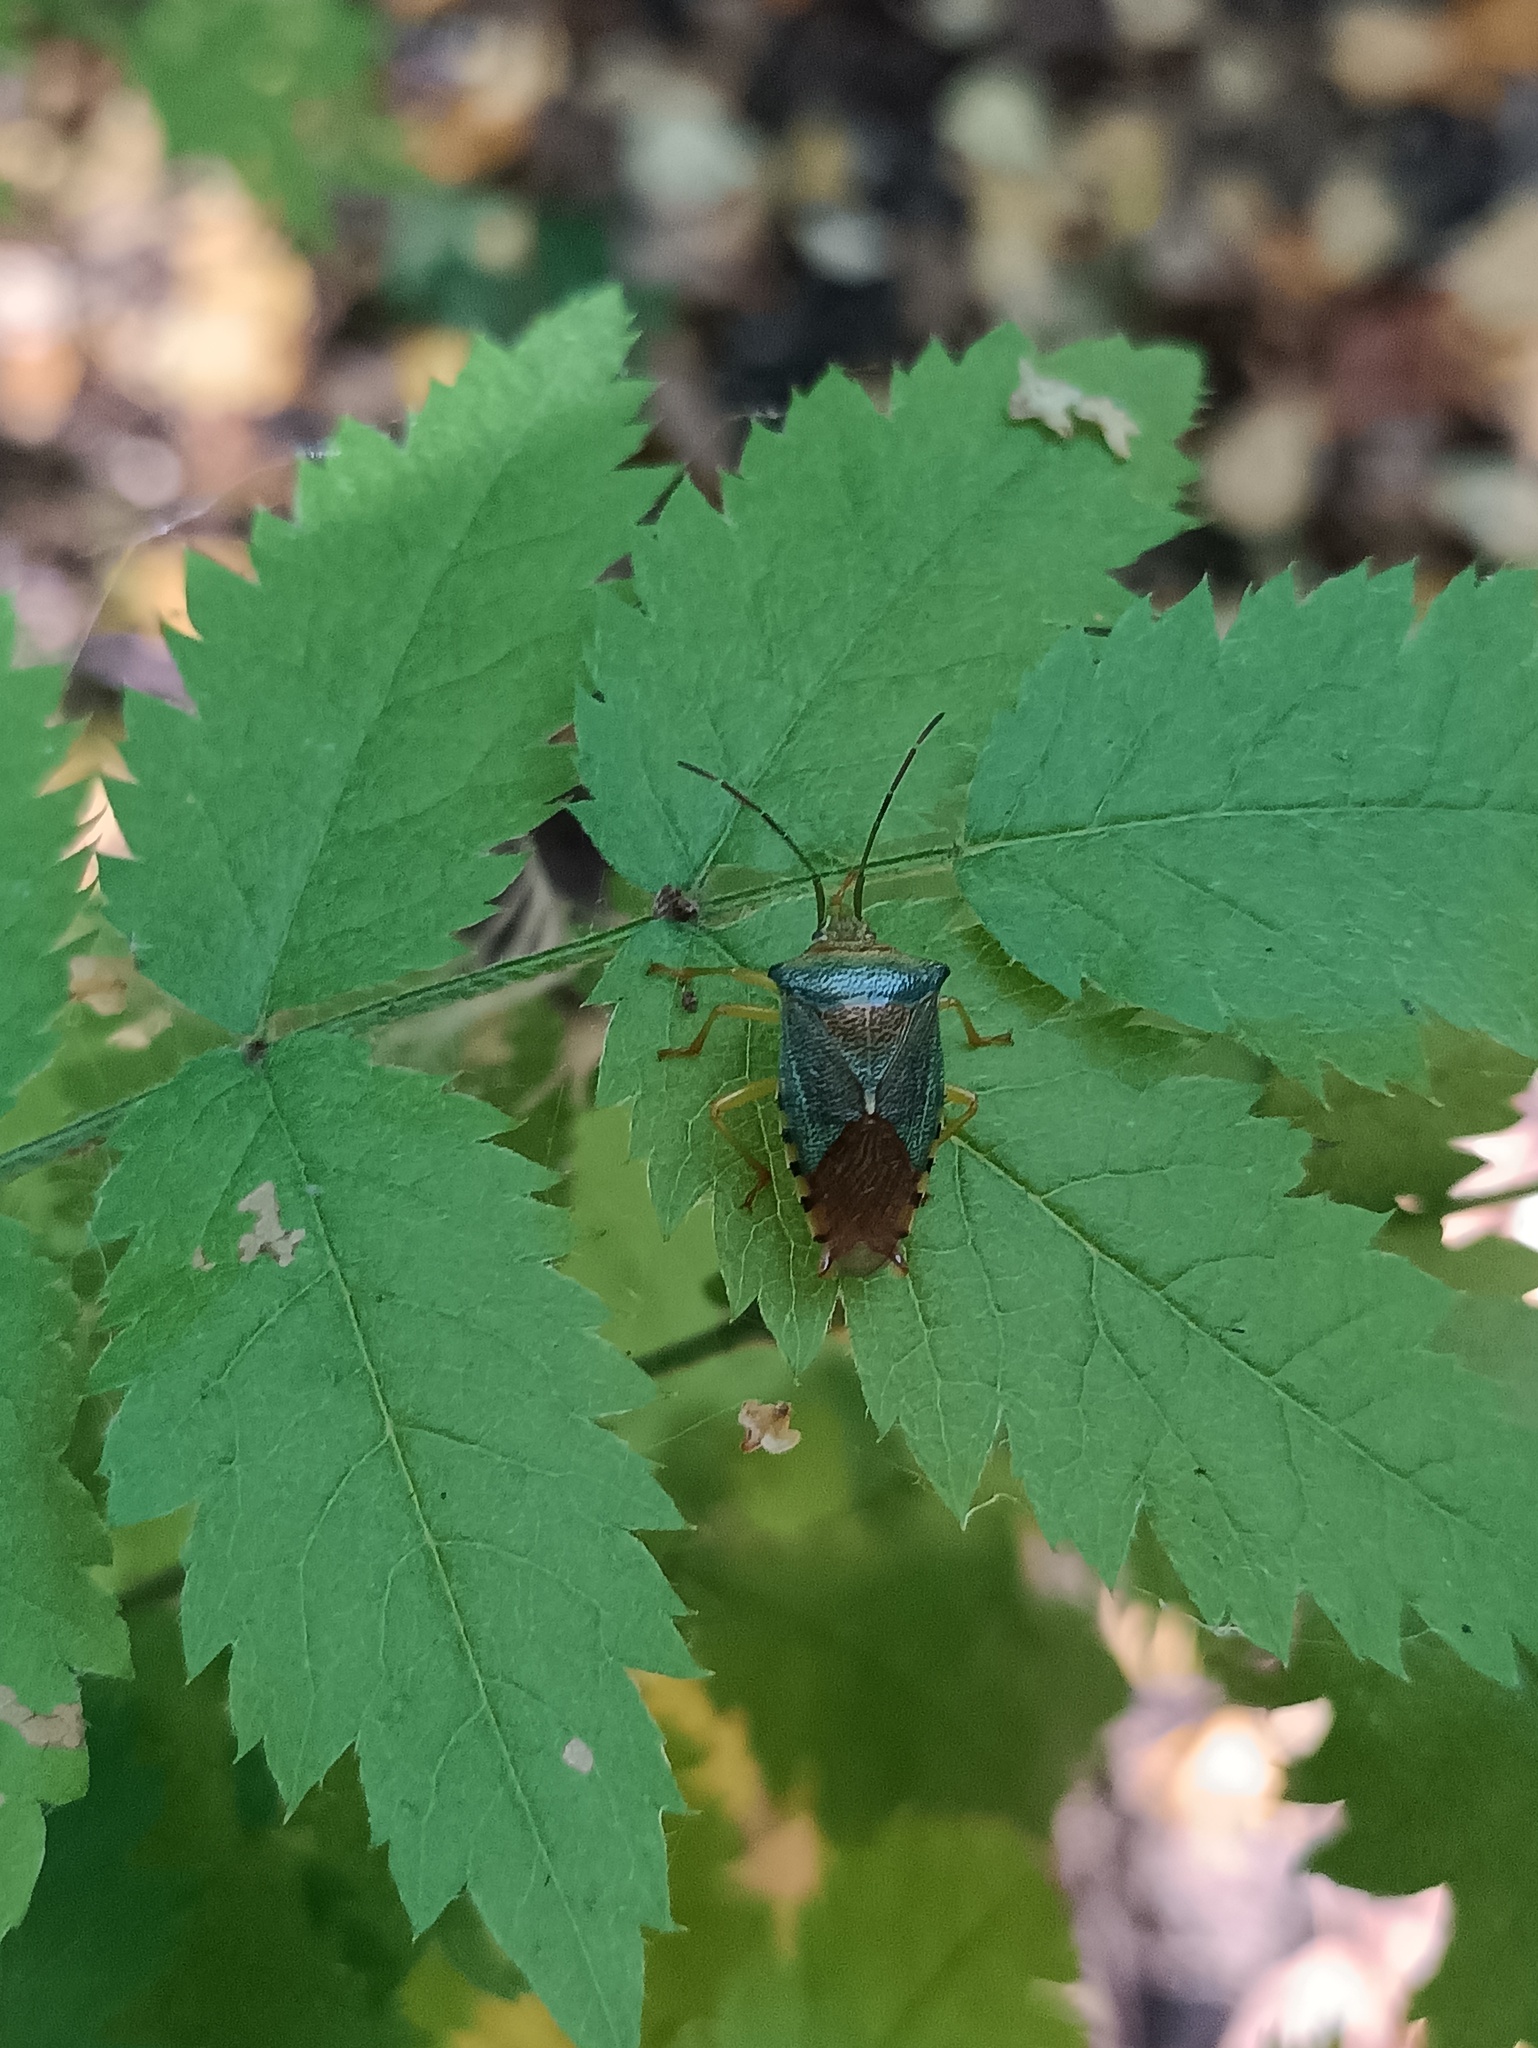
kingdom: Animalia
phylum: Arthropoda
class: Insecta
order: Hemiptera
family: Acanthosomatidae
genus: Acanthosoma
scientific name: Acanthosoma denticaudum
